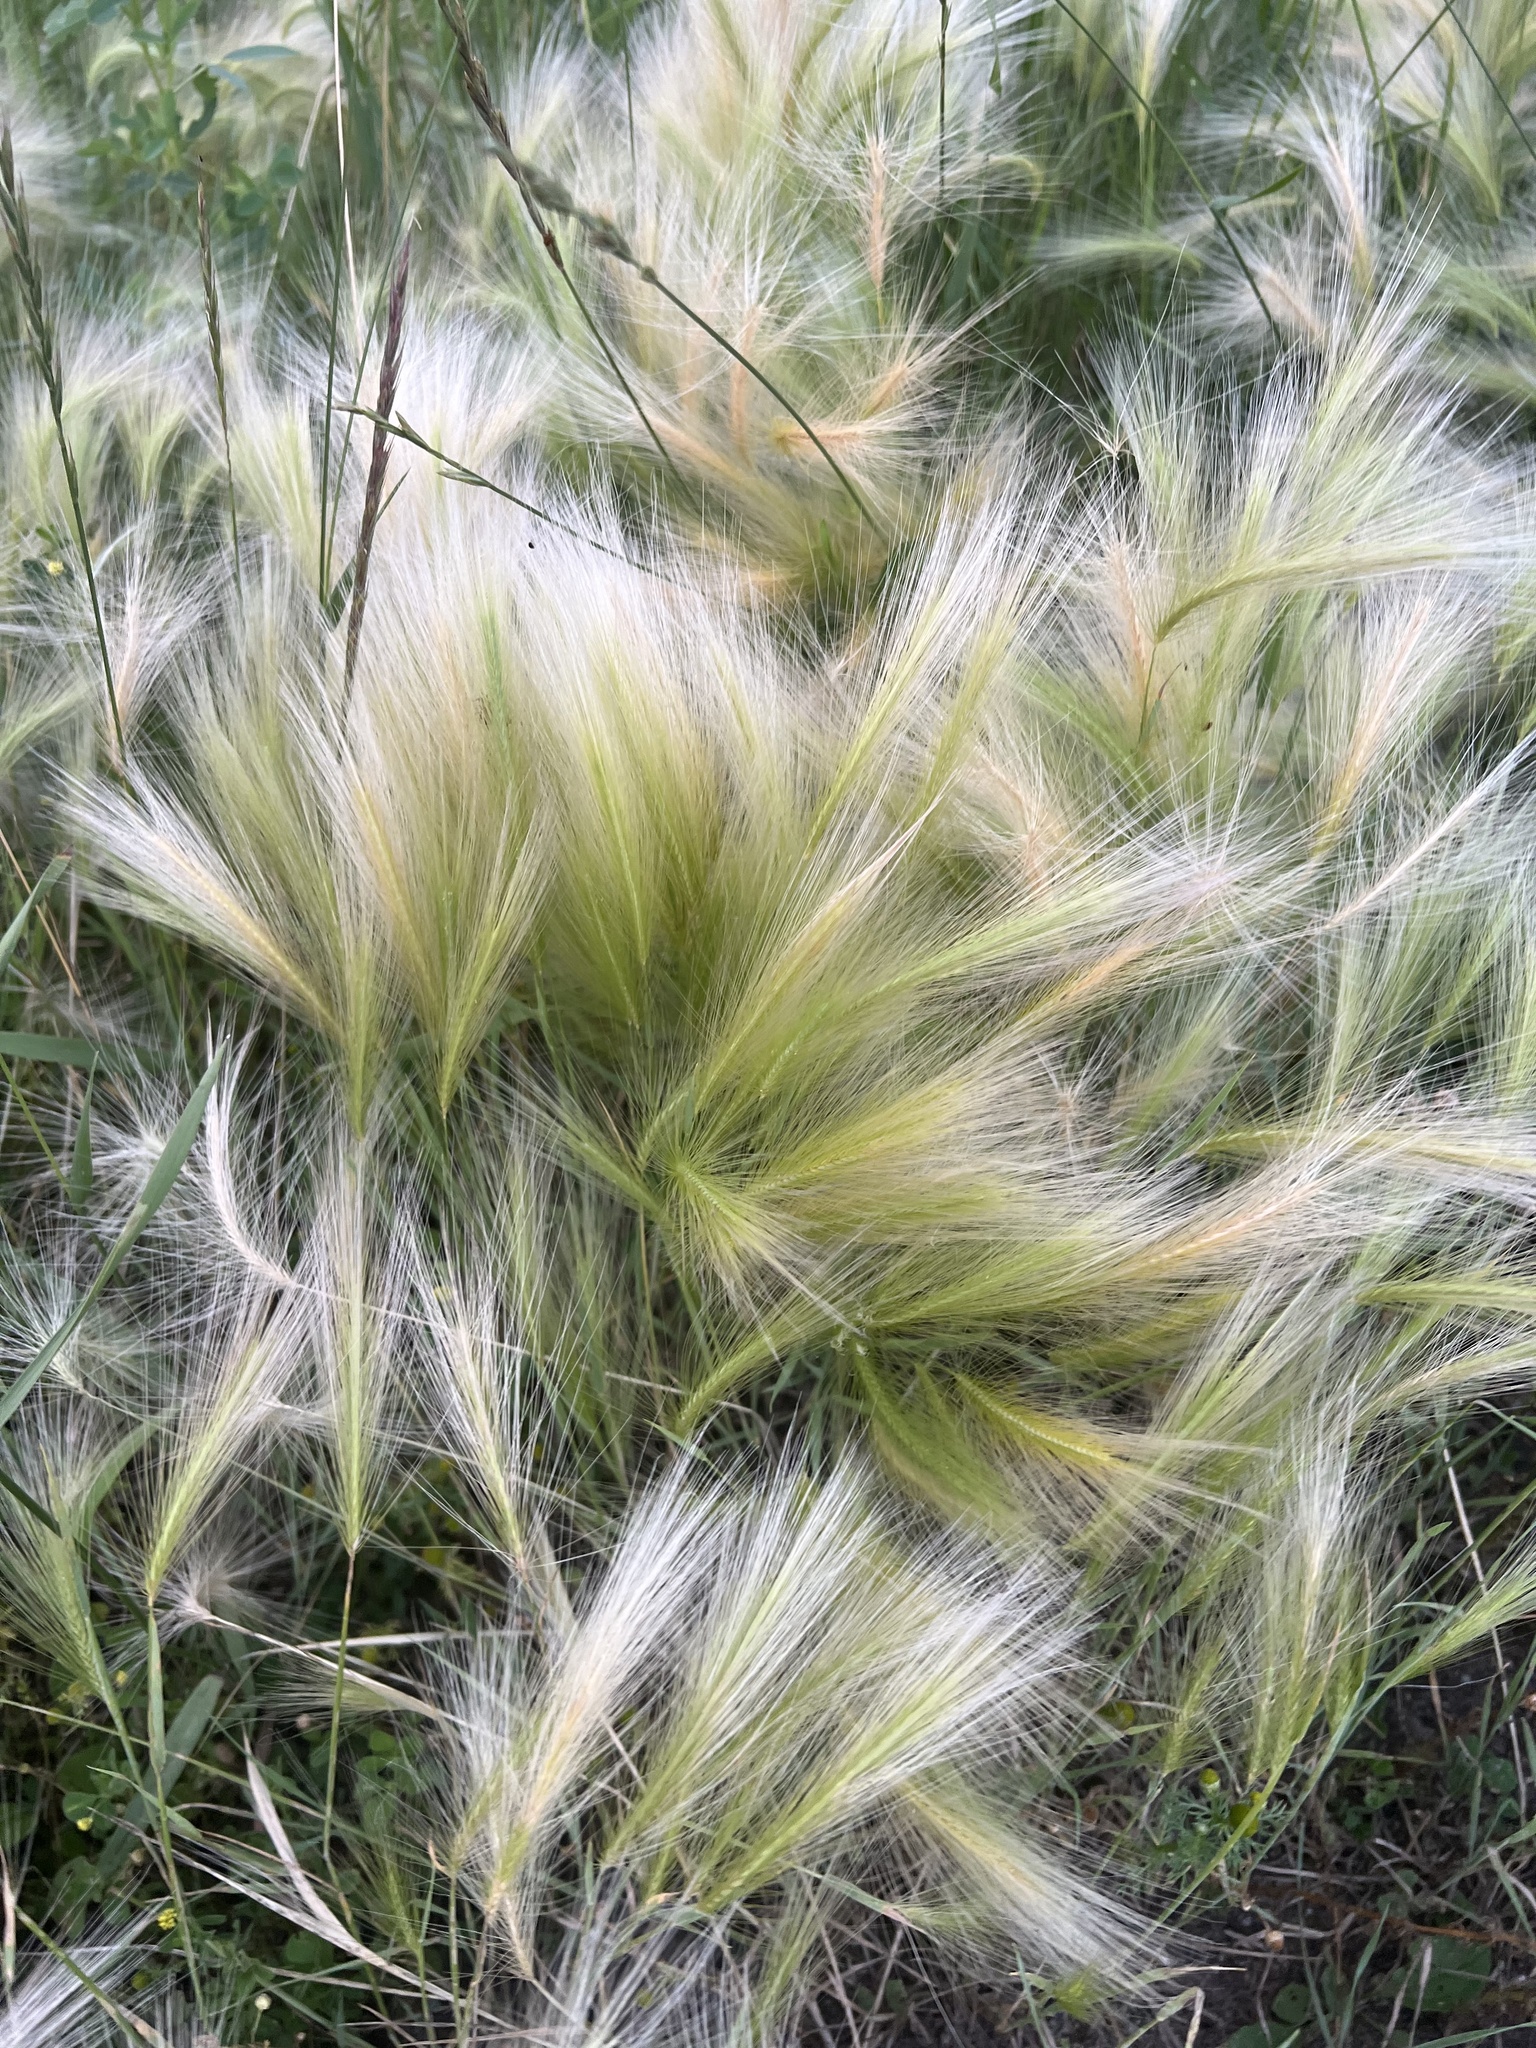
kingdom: Plantae
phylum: Tracheophyta
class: Liliopsida
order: Poales
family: Poaceae
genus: Hordeum
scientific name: Hordeum jubatum
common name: Foxtail barley
